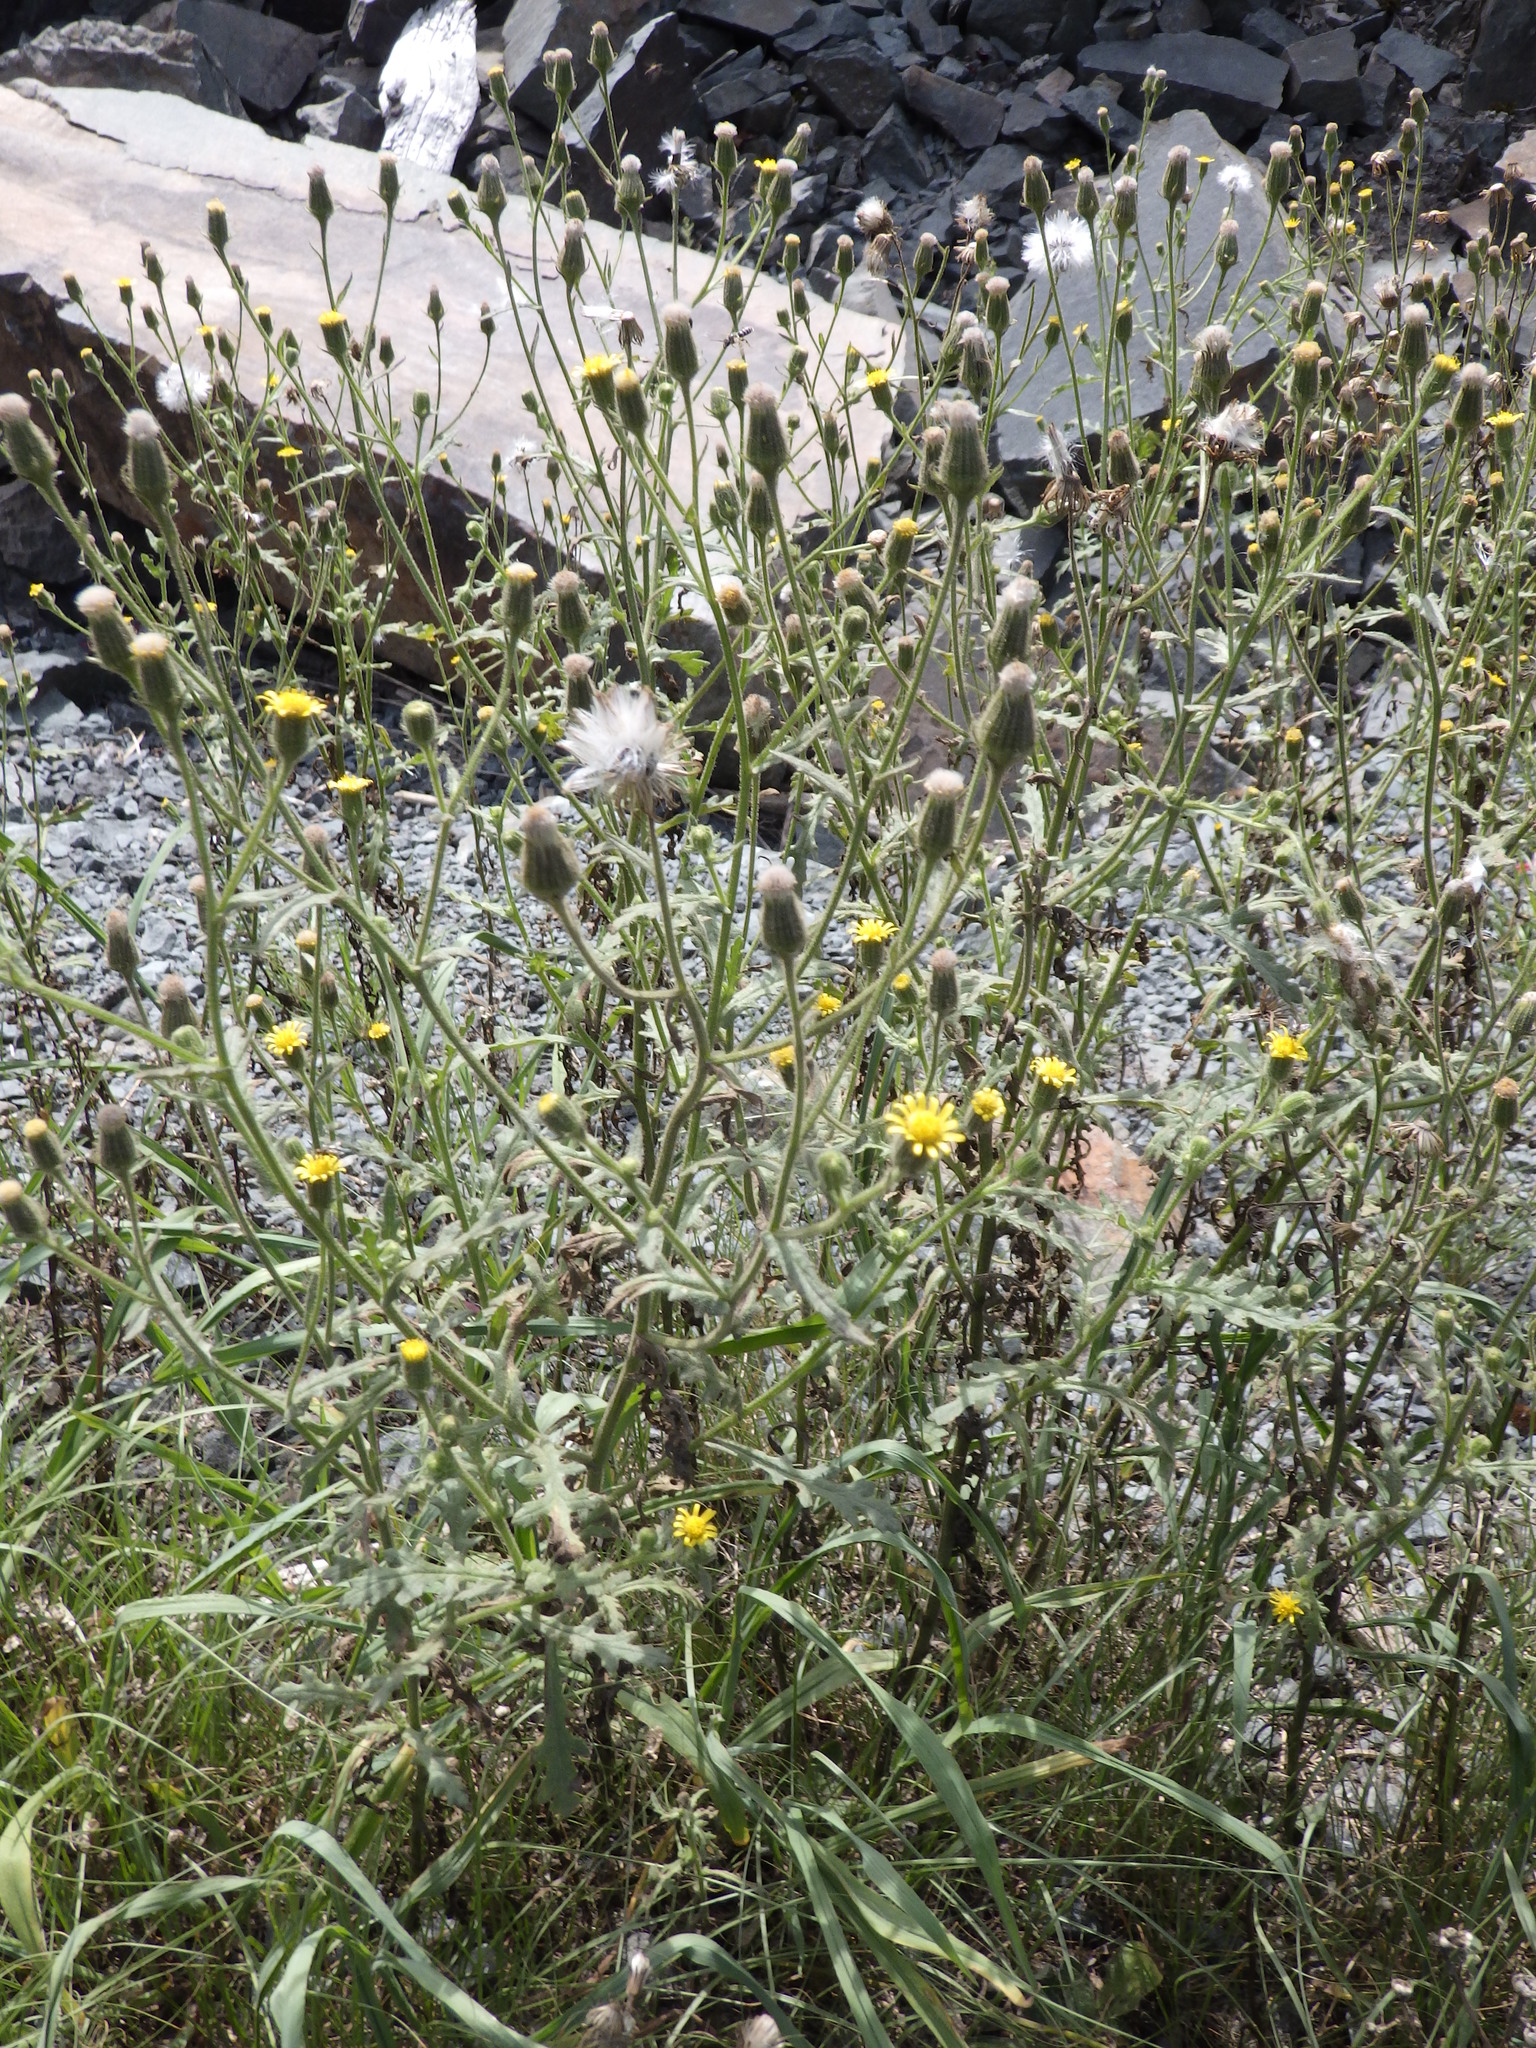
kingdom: Plantae
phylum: Tracheophyta
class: Magnoliopsida
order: Asterales
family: Asteraceae
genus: Senecio
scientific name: Senecio viscosus
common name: Sticky groundsel
